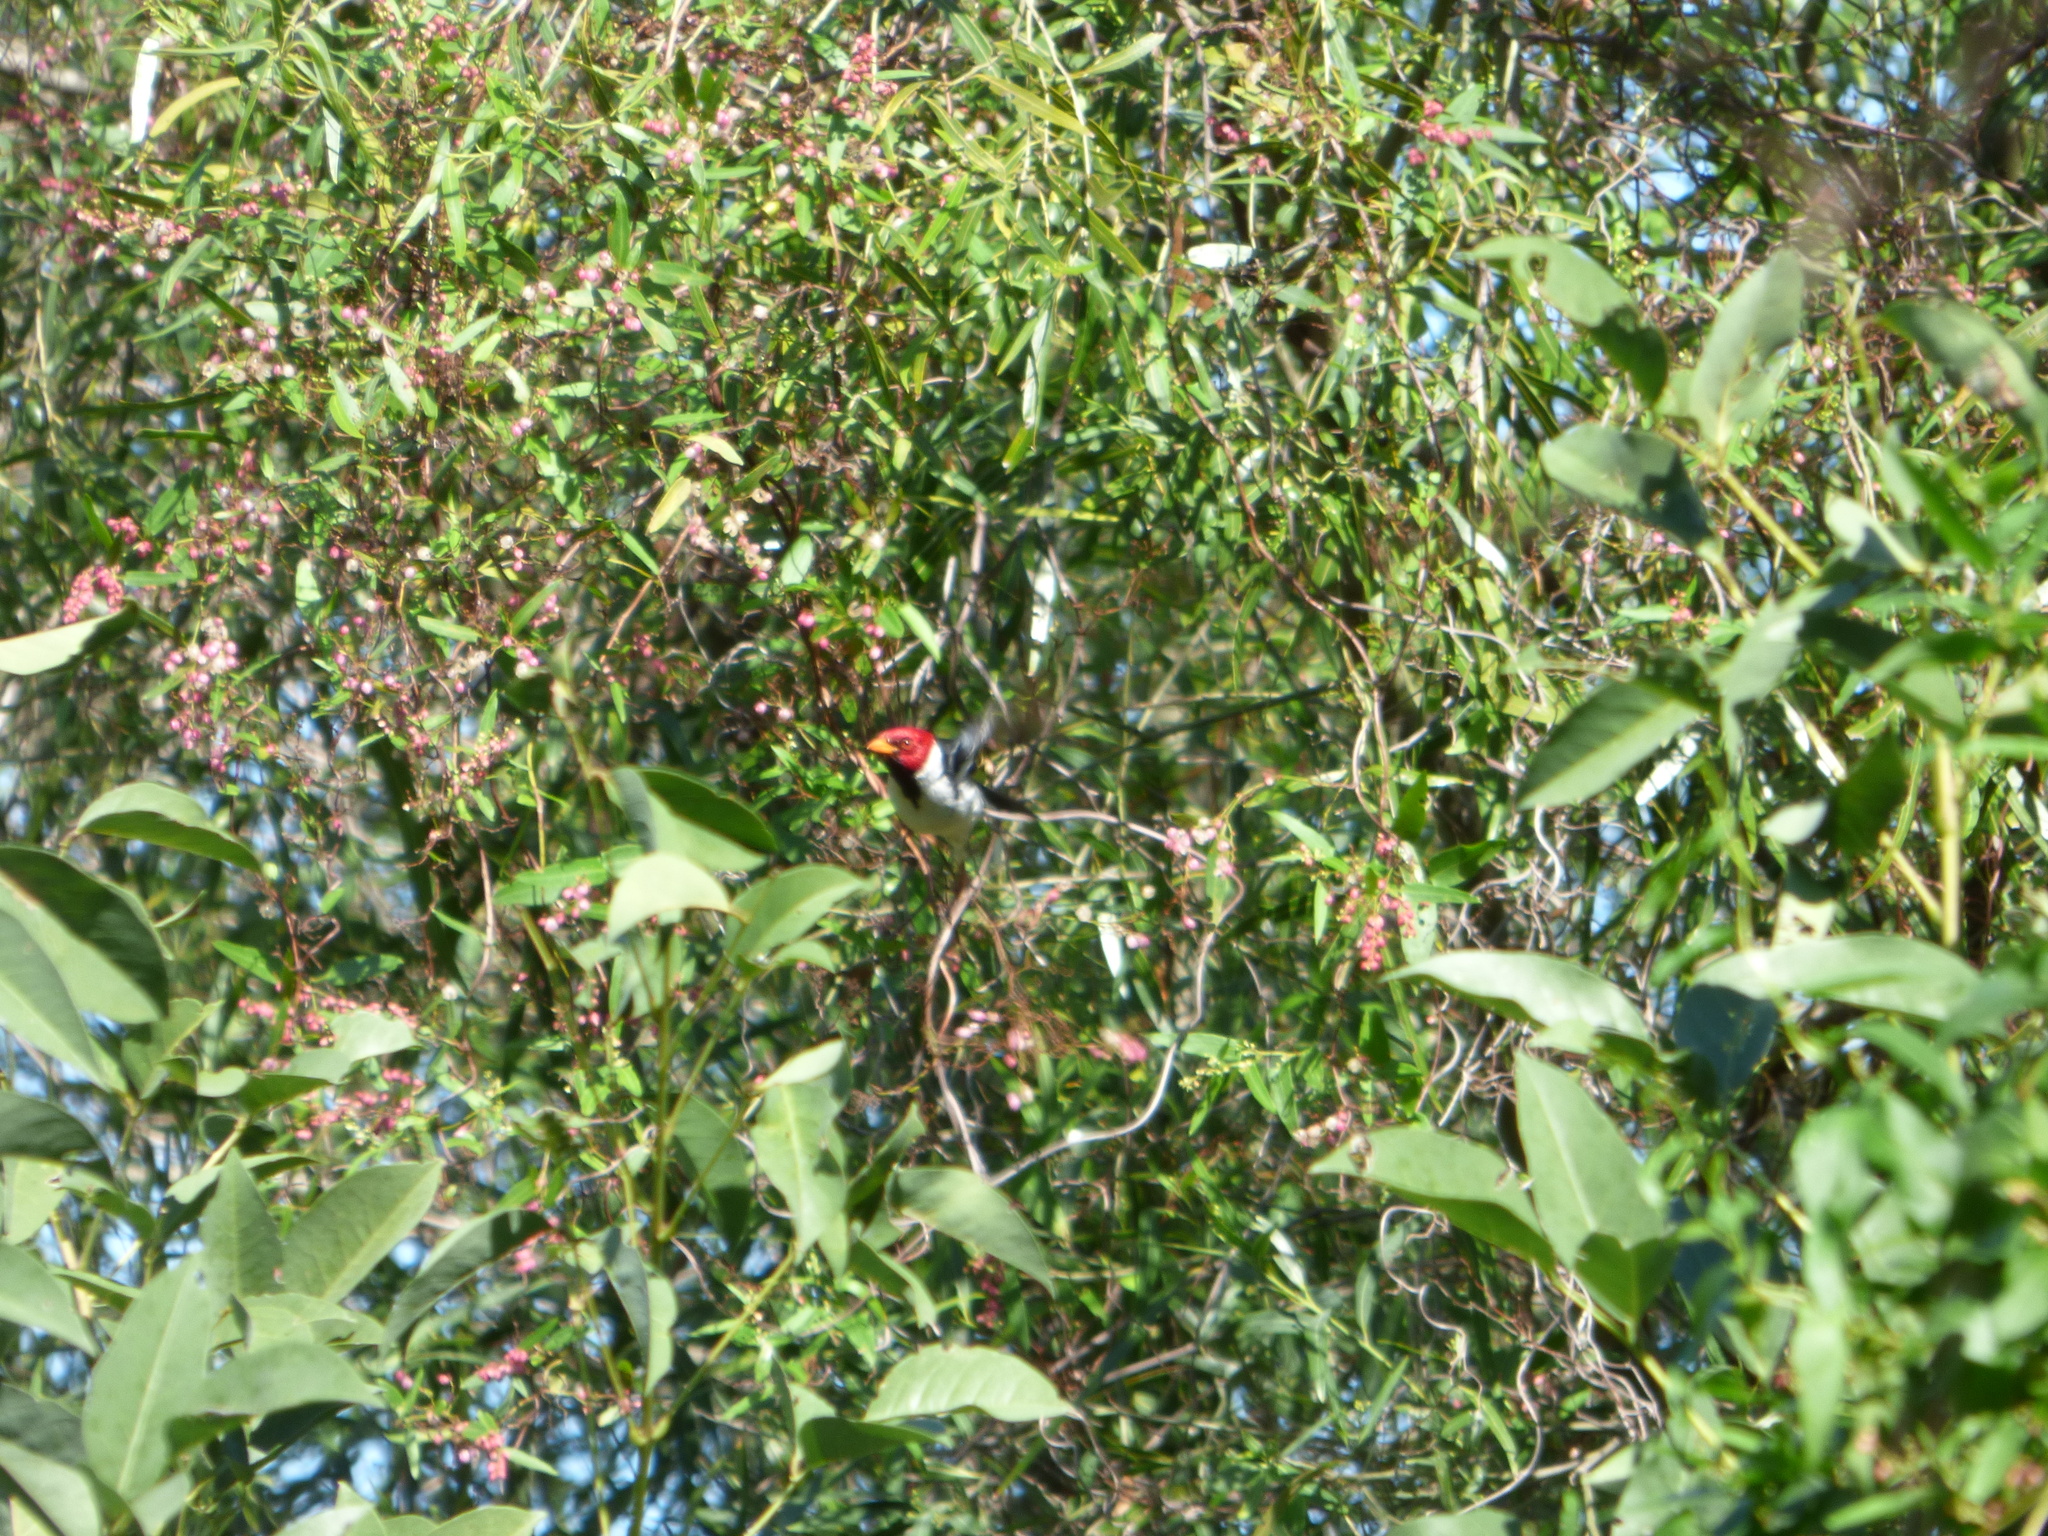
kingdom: Animalia
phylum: Chordata
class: Aves
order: Passeriformes
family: Thraupidae
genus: Paroaria
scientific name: Paroaria capitata
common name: Yellow-billed cardinal
